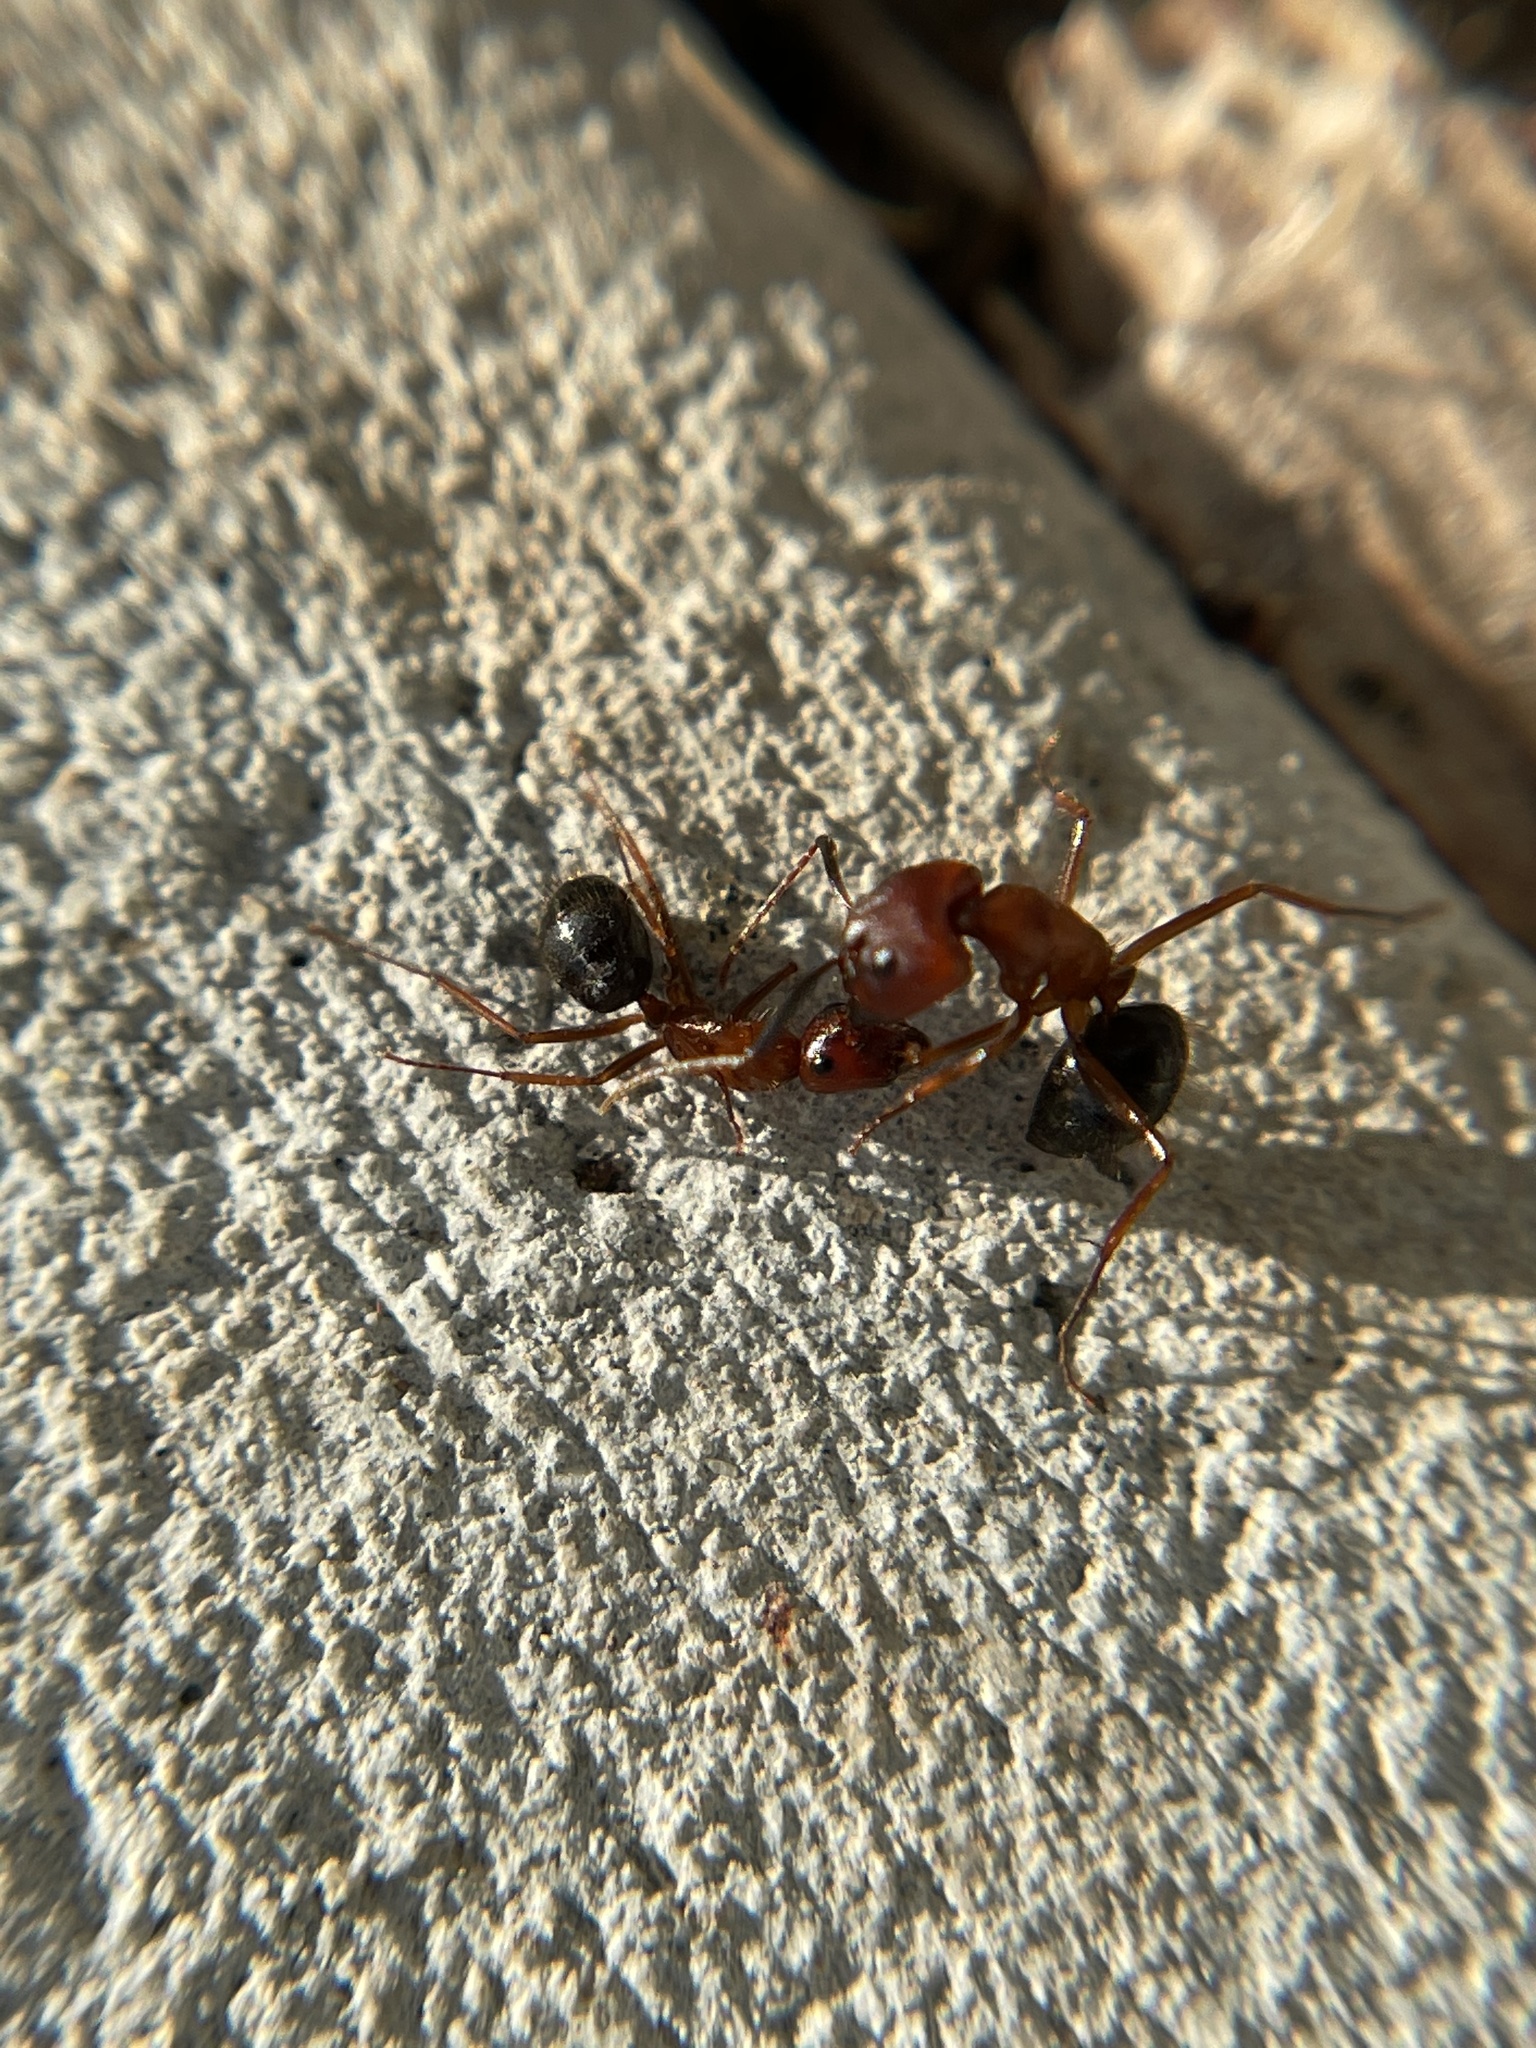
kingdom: Animalia
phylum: Arthropoda
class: Insecta
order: Hymenoptera
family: Formicidae
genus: Camponotus
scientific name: Camponotus floridanus
